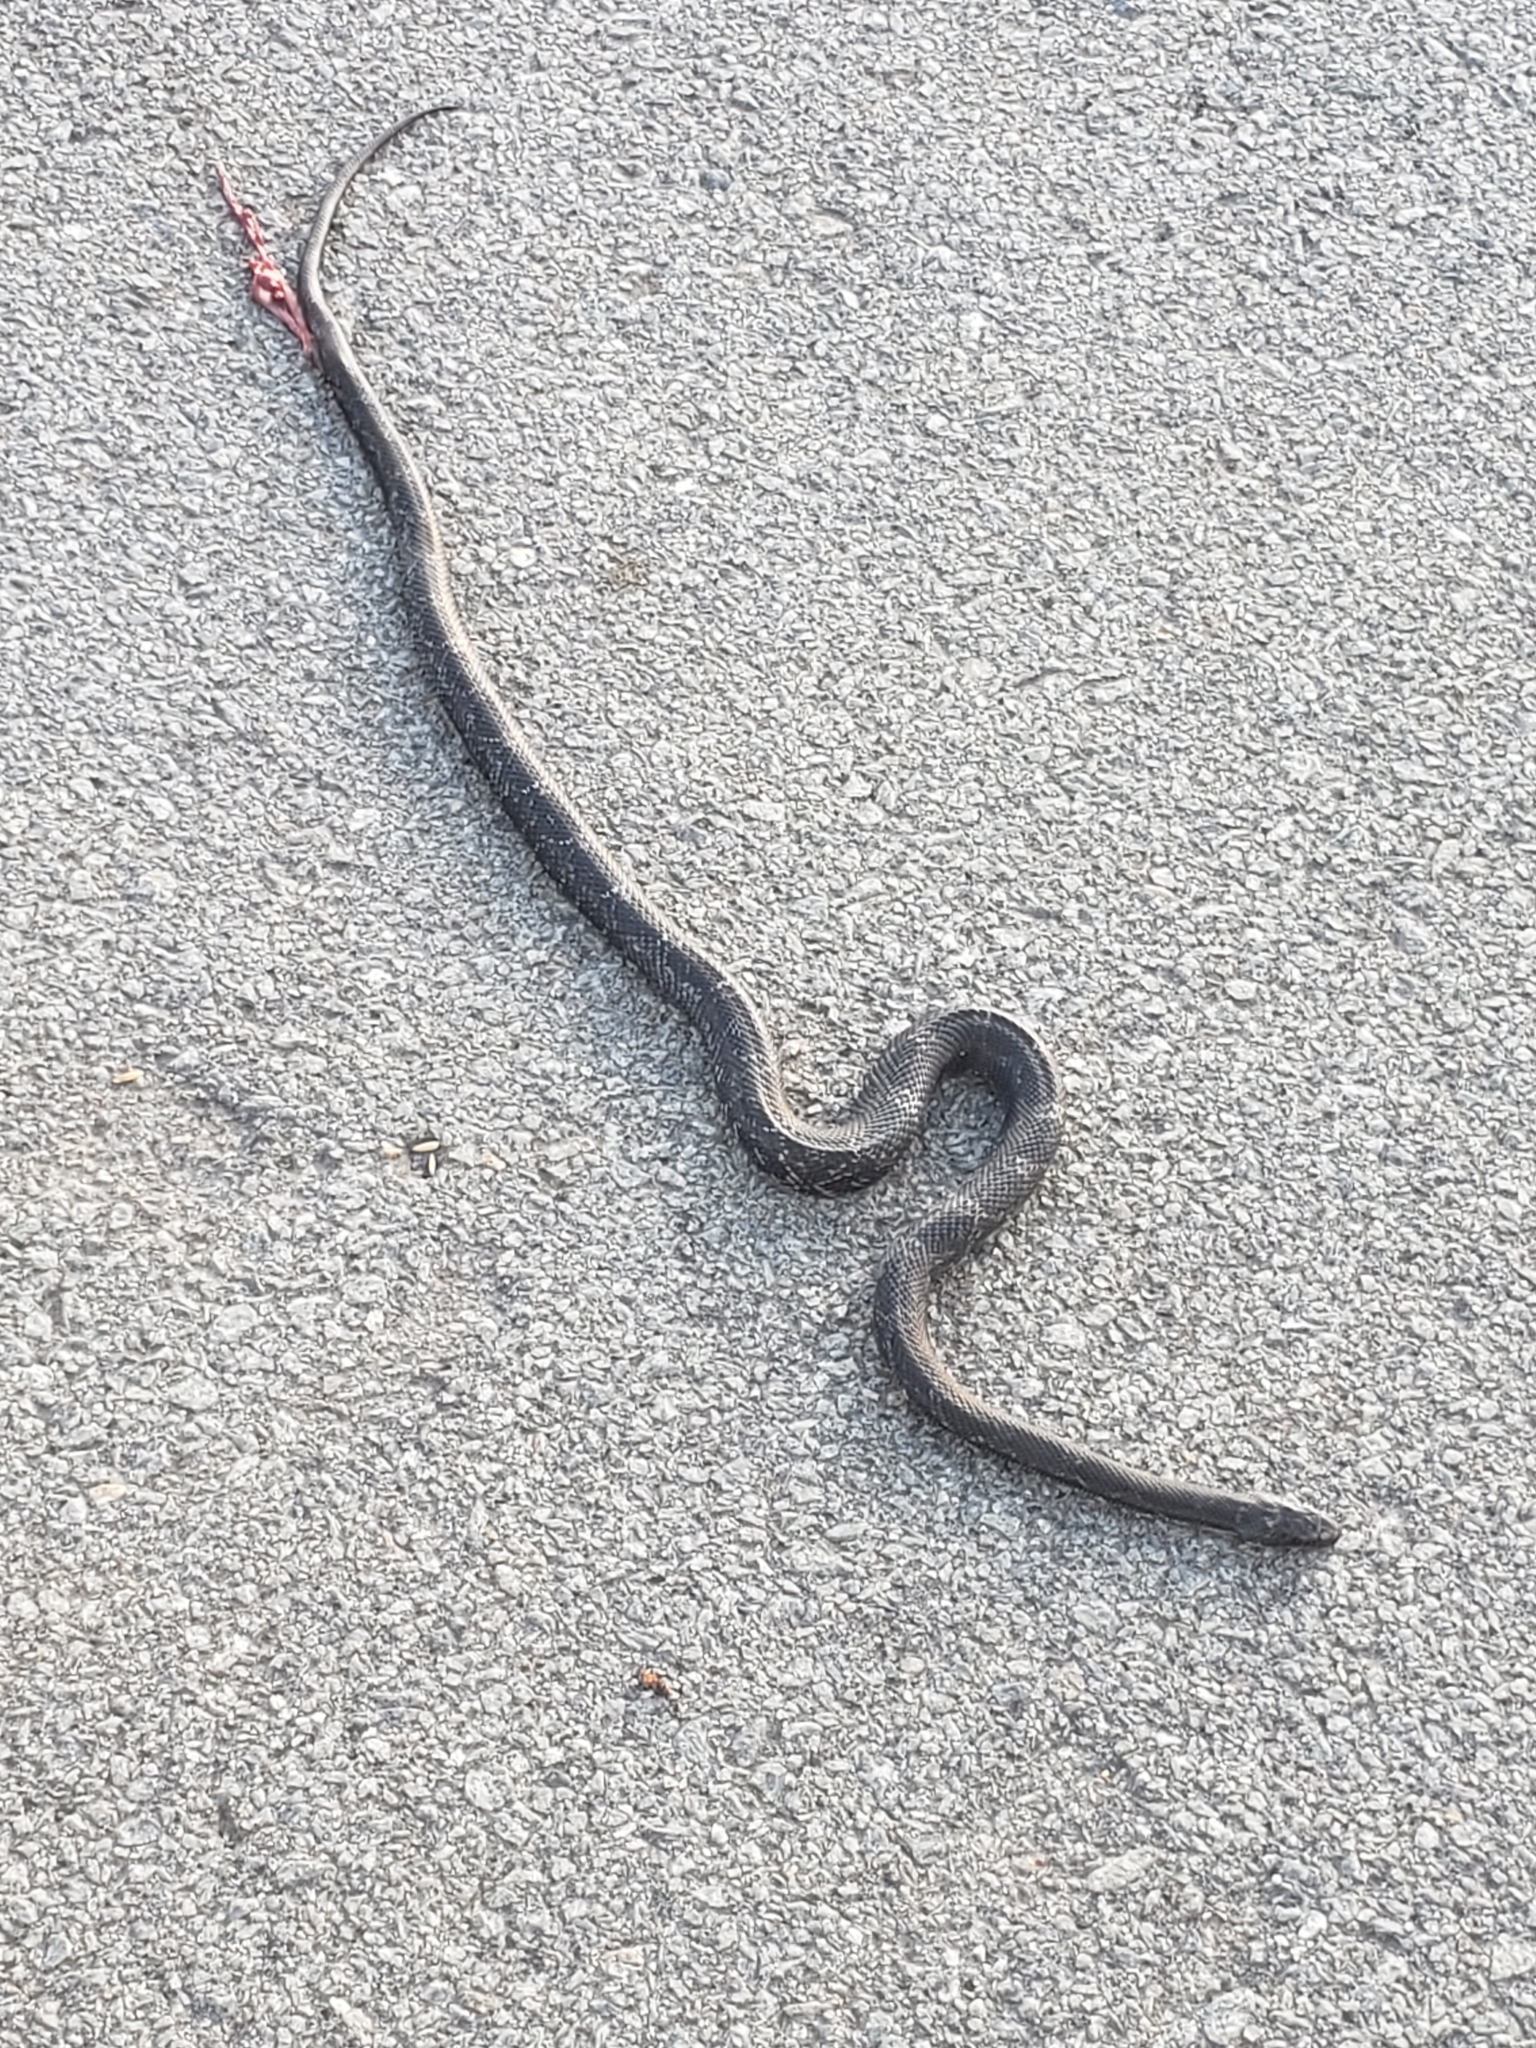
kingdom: Animalia
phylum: Chordata
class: Squamata
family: Colubridae
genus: Pantherophis
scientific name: Pantherophis obsoletus
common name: Black rat snake
